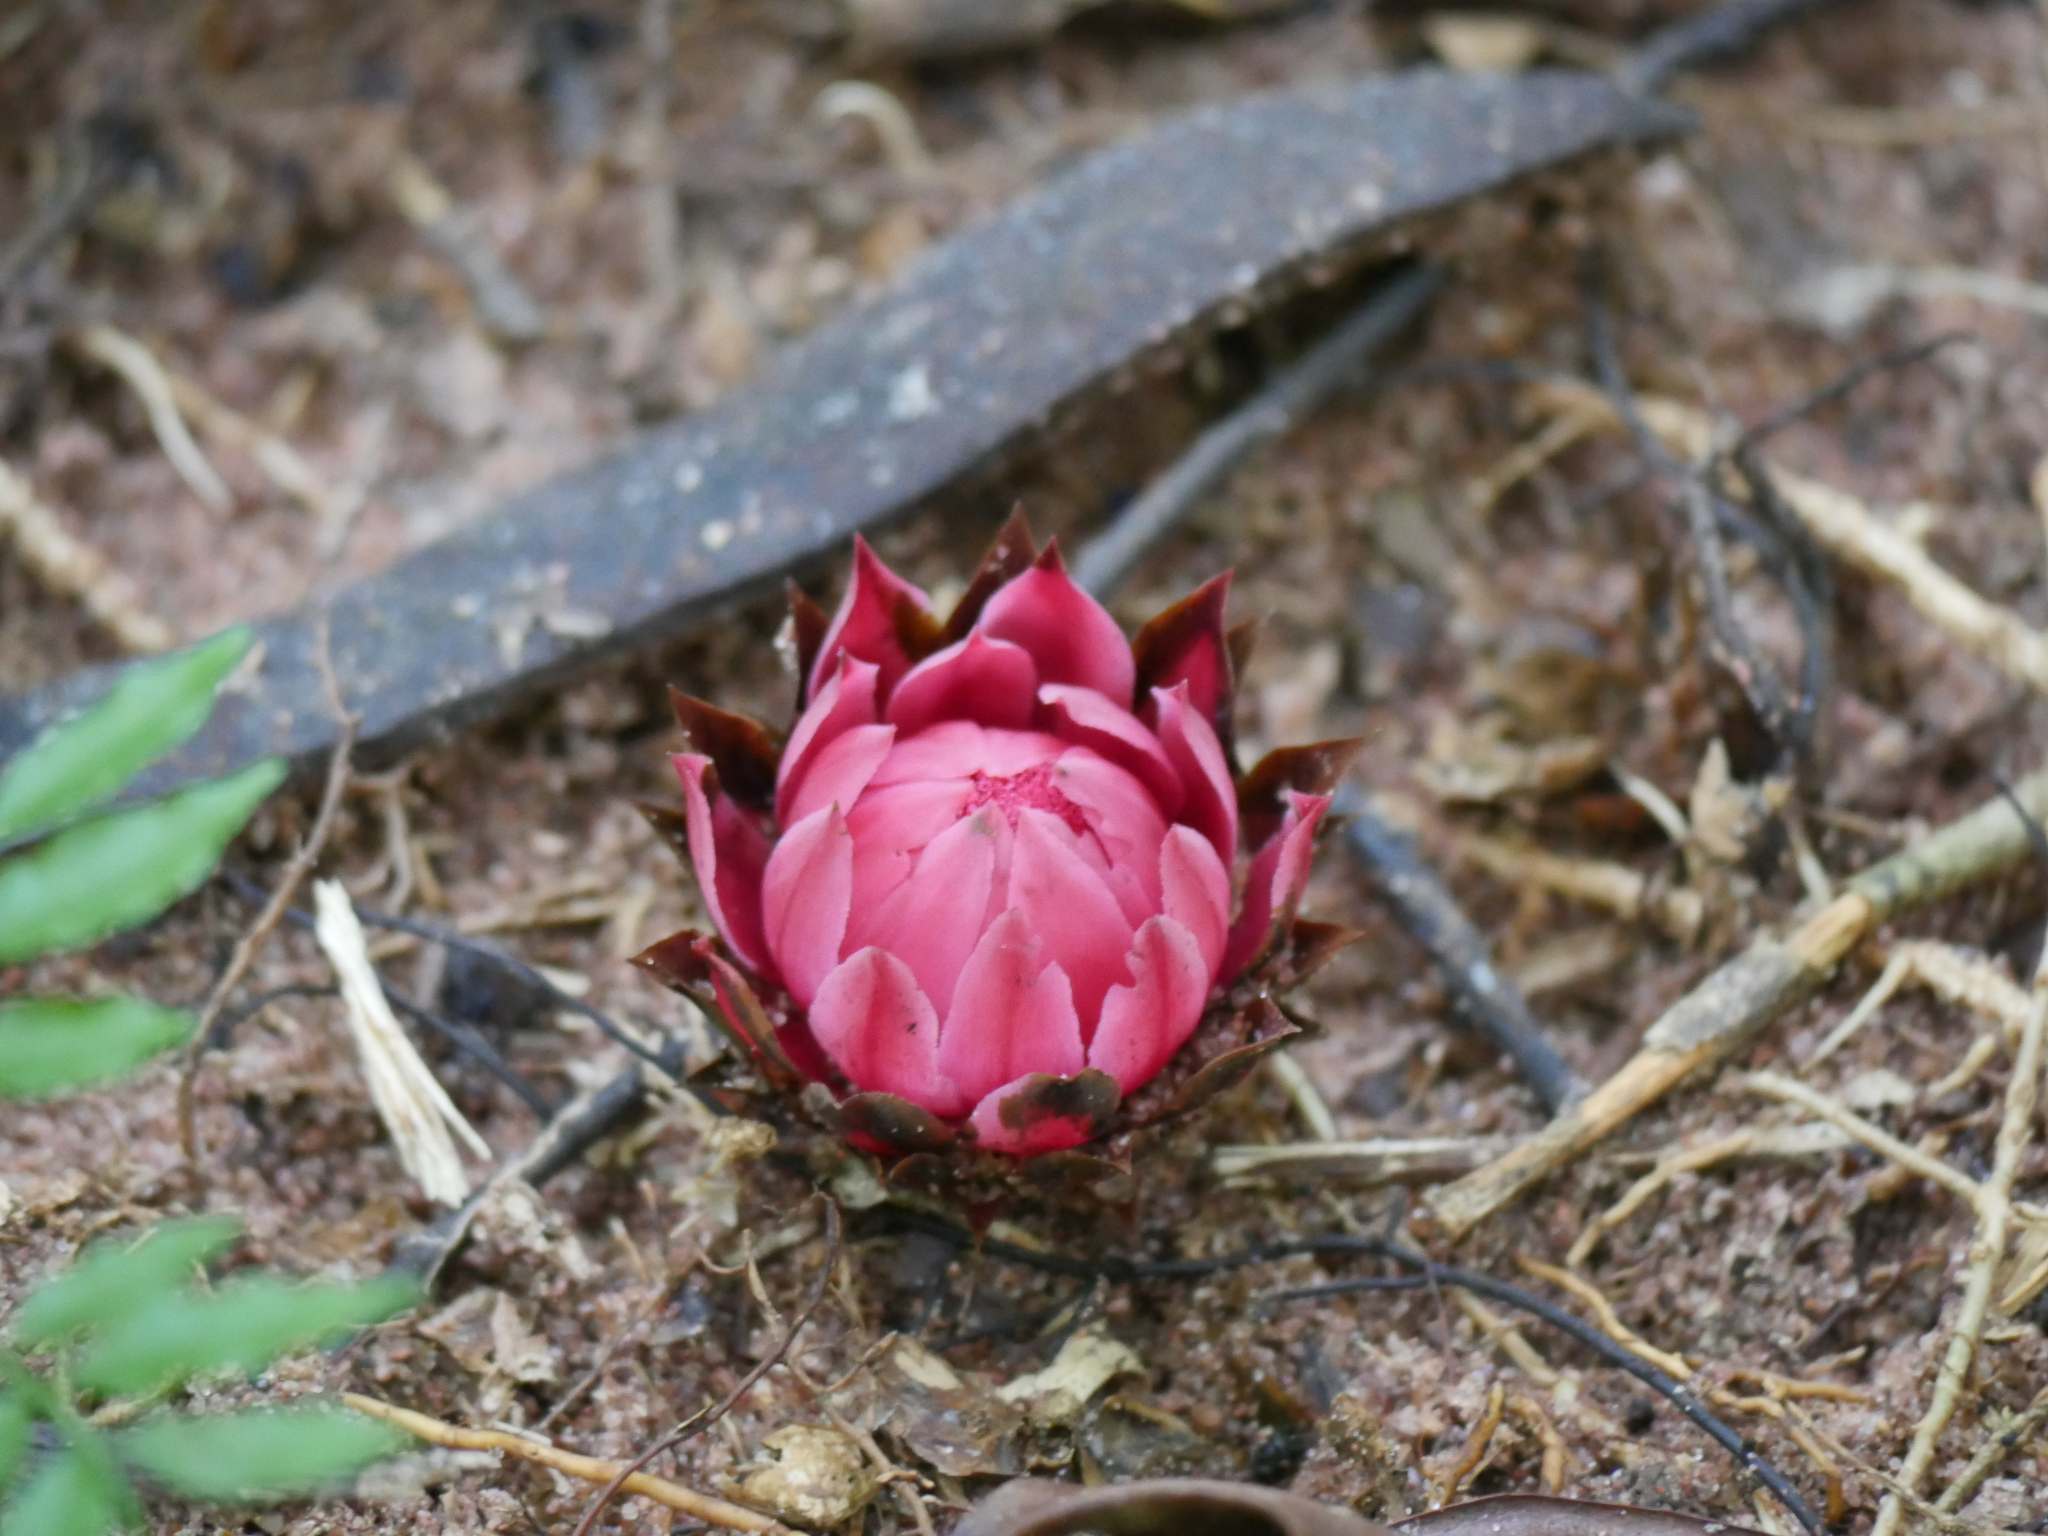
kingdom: Plantae
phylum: Tracheophyta
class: Magnoliopsida
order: Santalales
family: Balanophoraceae
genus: Thonningia
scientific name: Thonningia sanguinea
